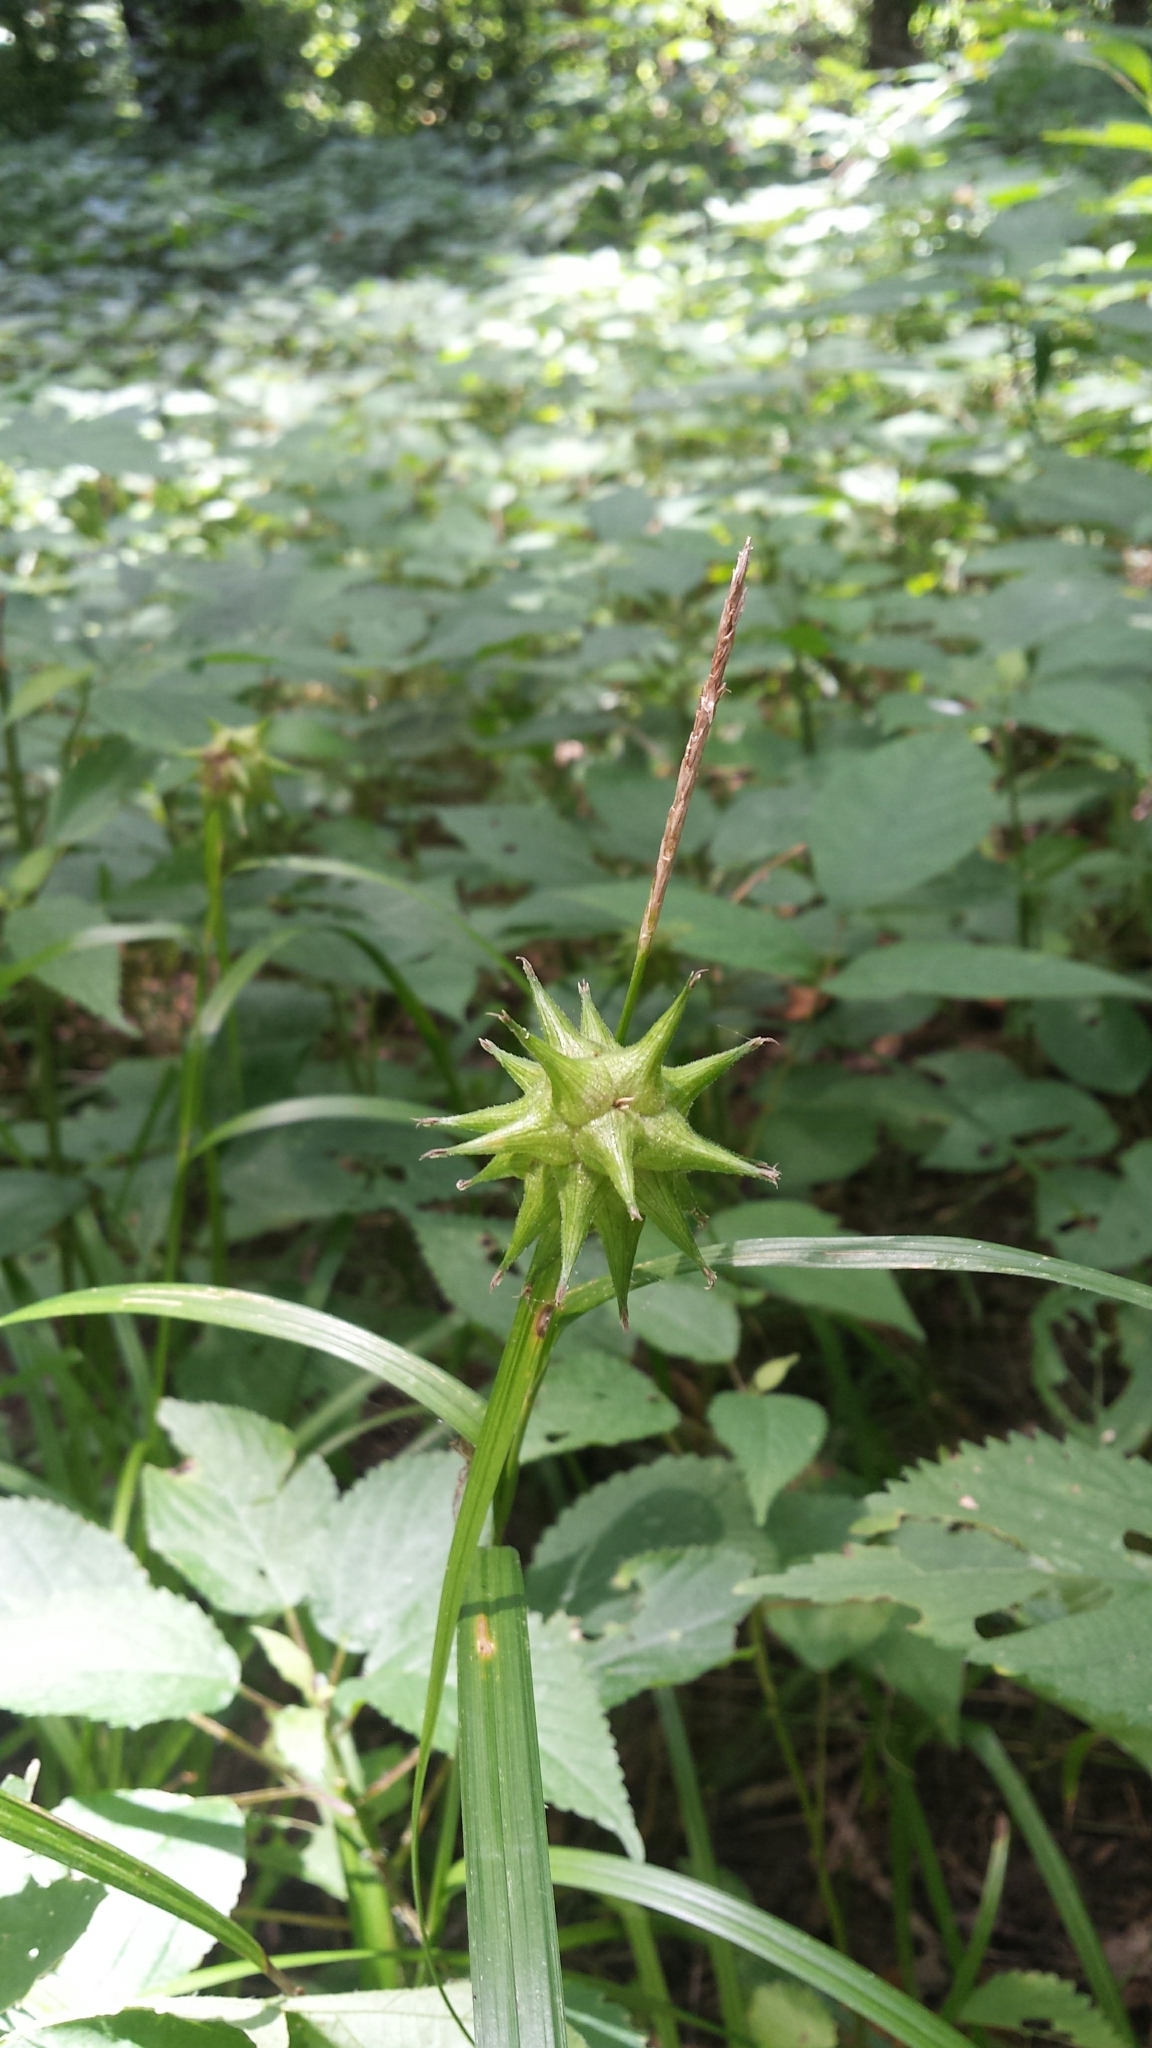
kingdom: Plantae
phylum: Tracheophyta
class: Liliopsida
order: Poales
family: Cyperaceae
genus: Carex
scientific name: Carex grayi
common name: Asa gray's sedge
